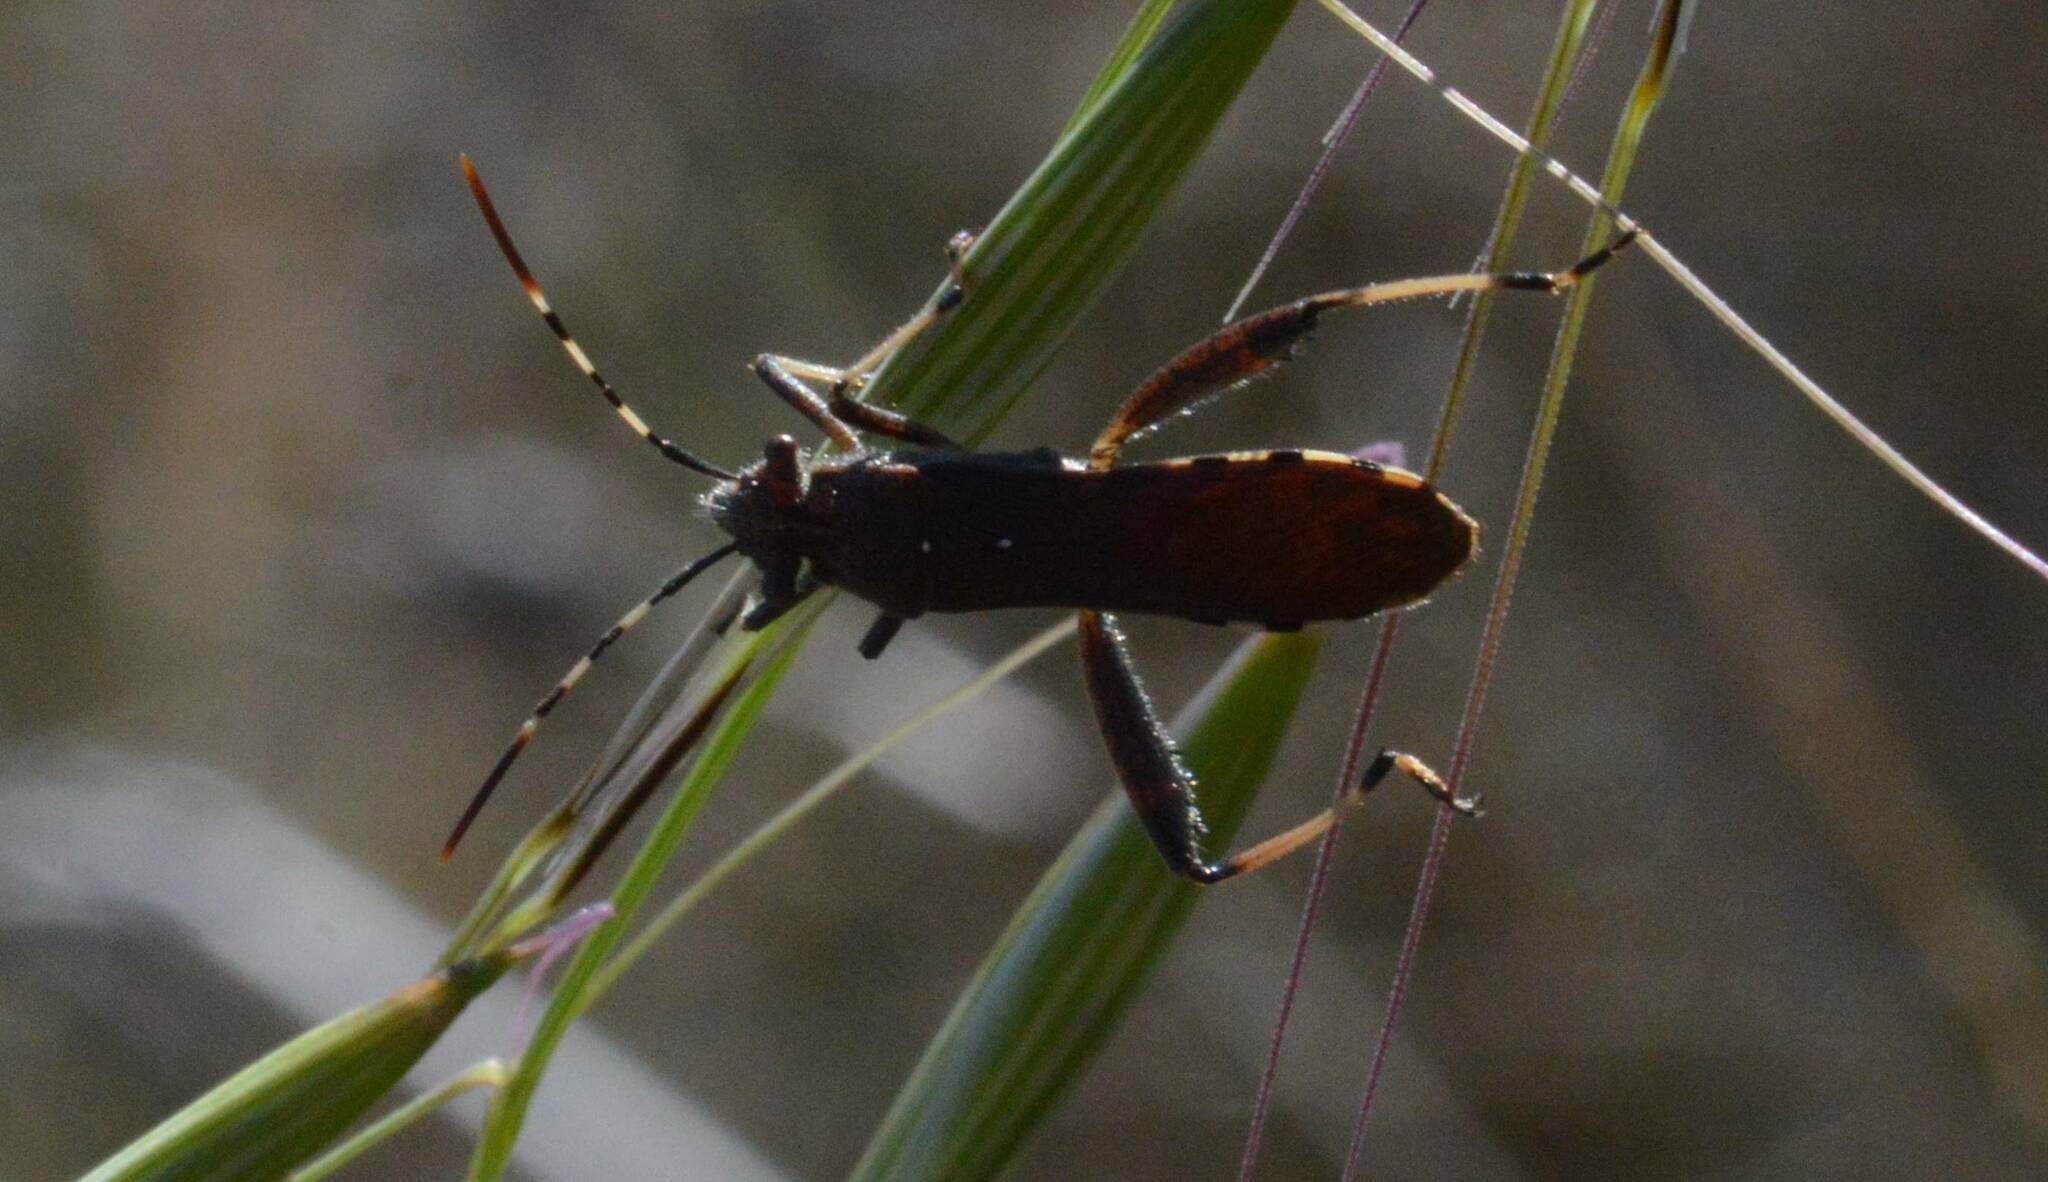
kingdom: Animalia
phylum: Arthropoda
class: Insecta
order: Hemiptera
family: Alydidae
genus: Camptopus
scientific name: Camptopus lateralis
